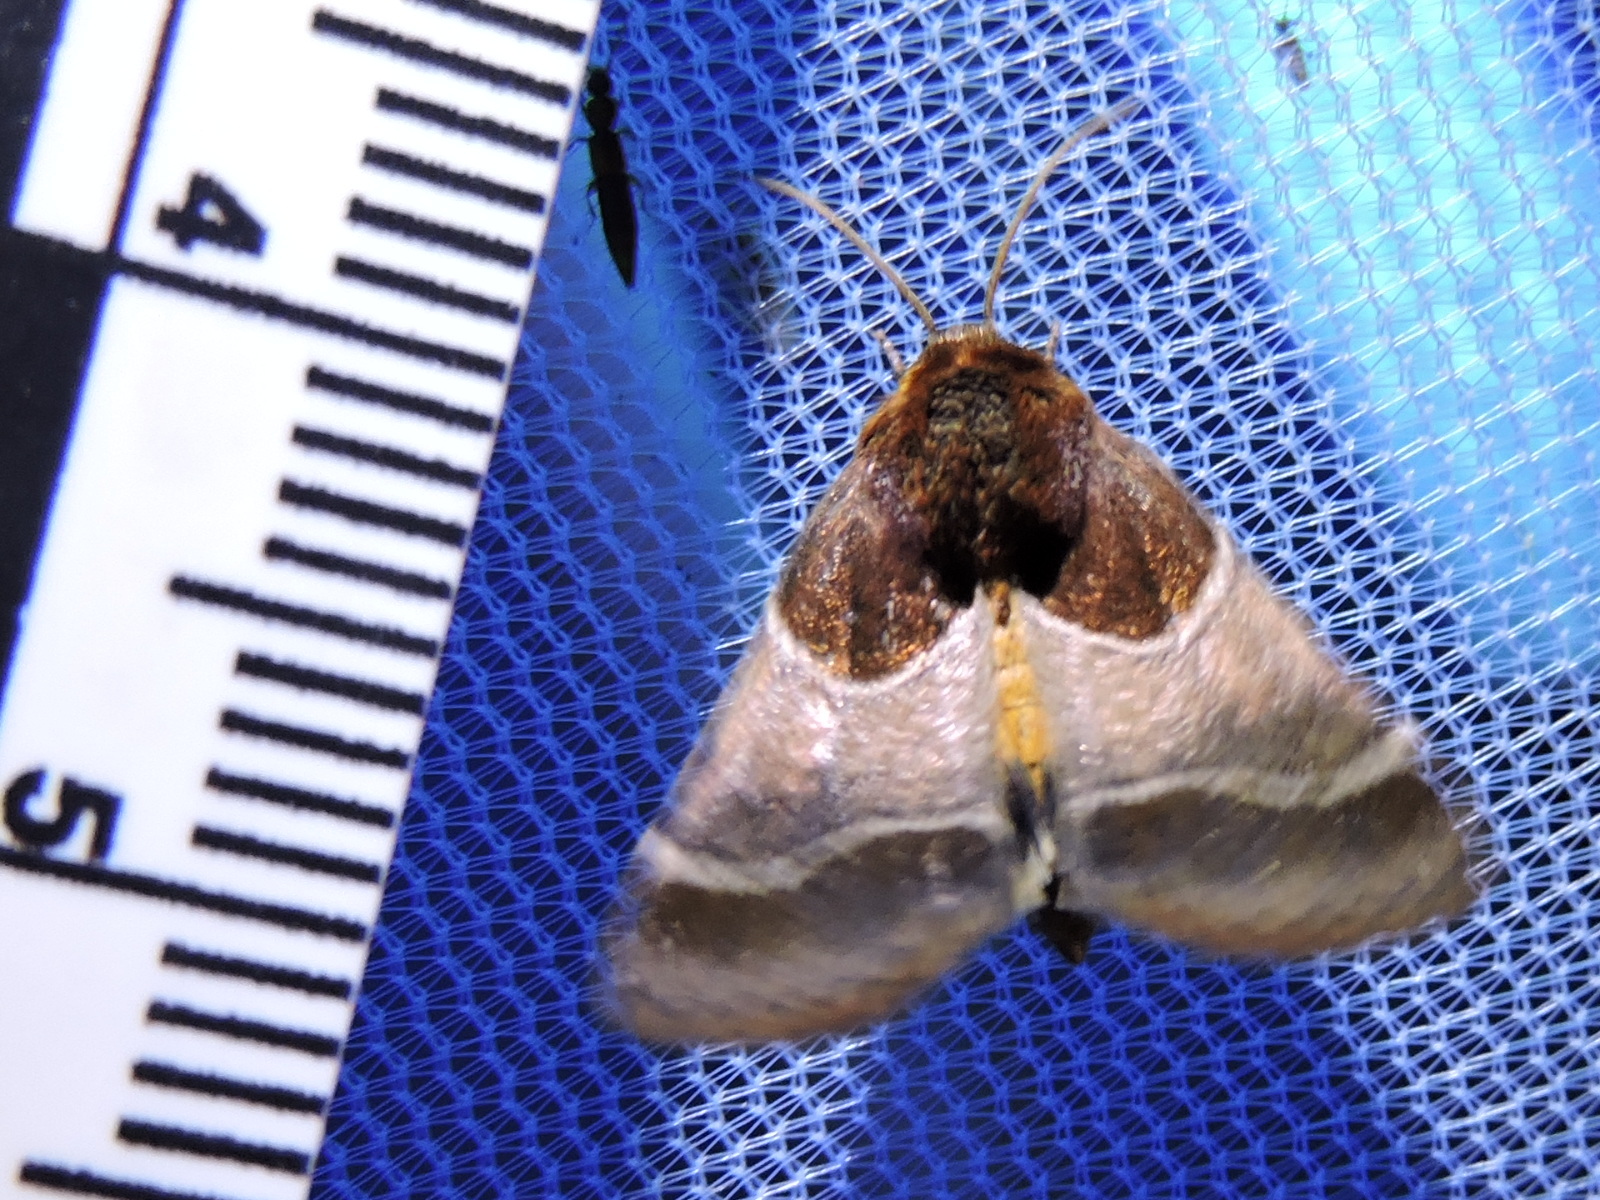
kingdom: Animalia
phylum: Arthropoda
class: Insecta
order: Lepidoptera
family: Noctuidae
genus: Schinia
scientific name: Schinia arcigera
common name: Arcigera flower moth
